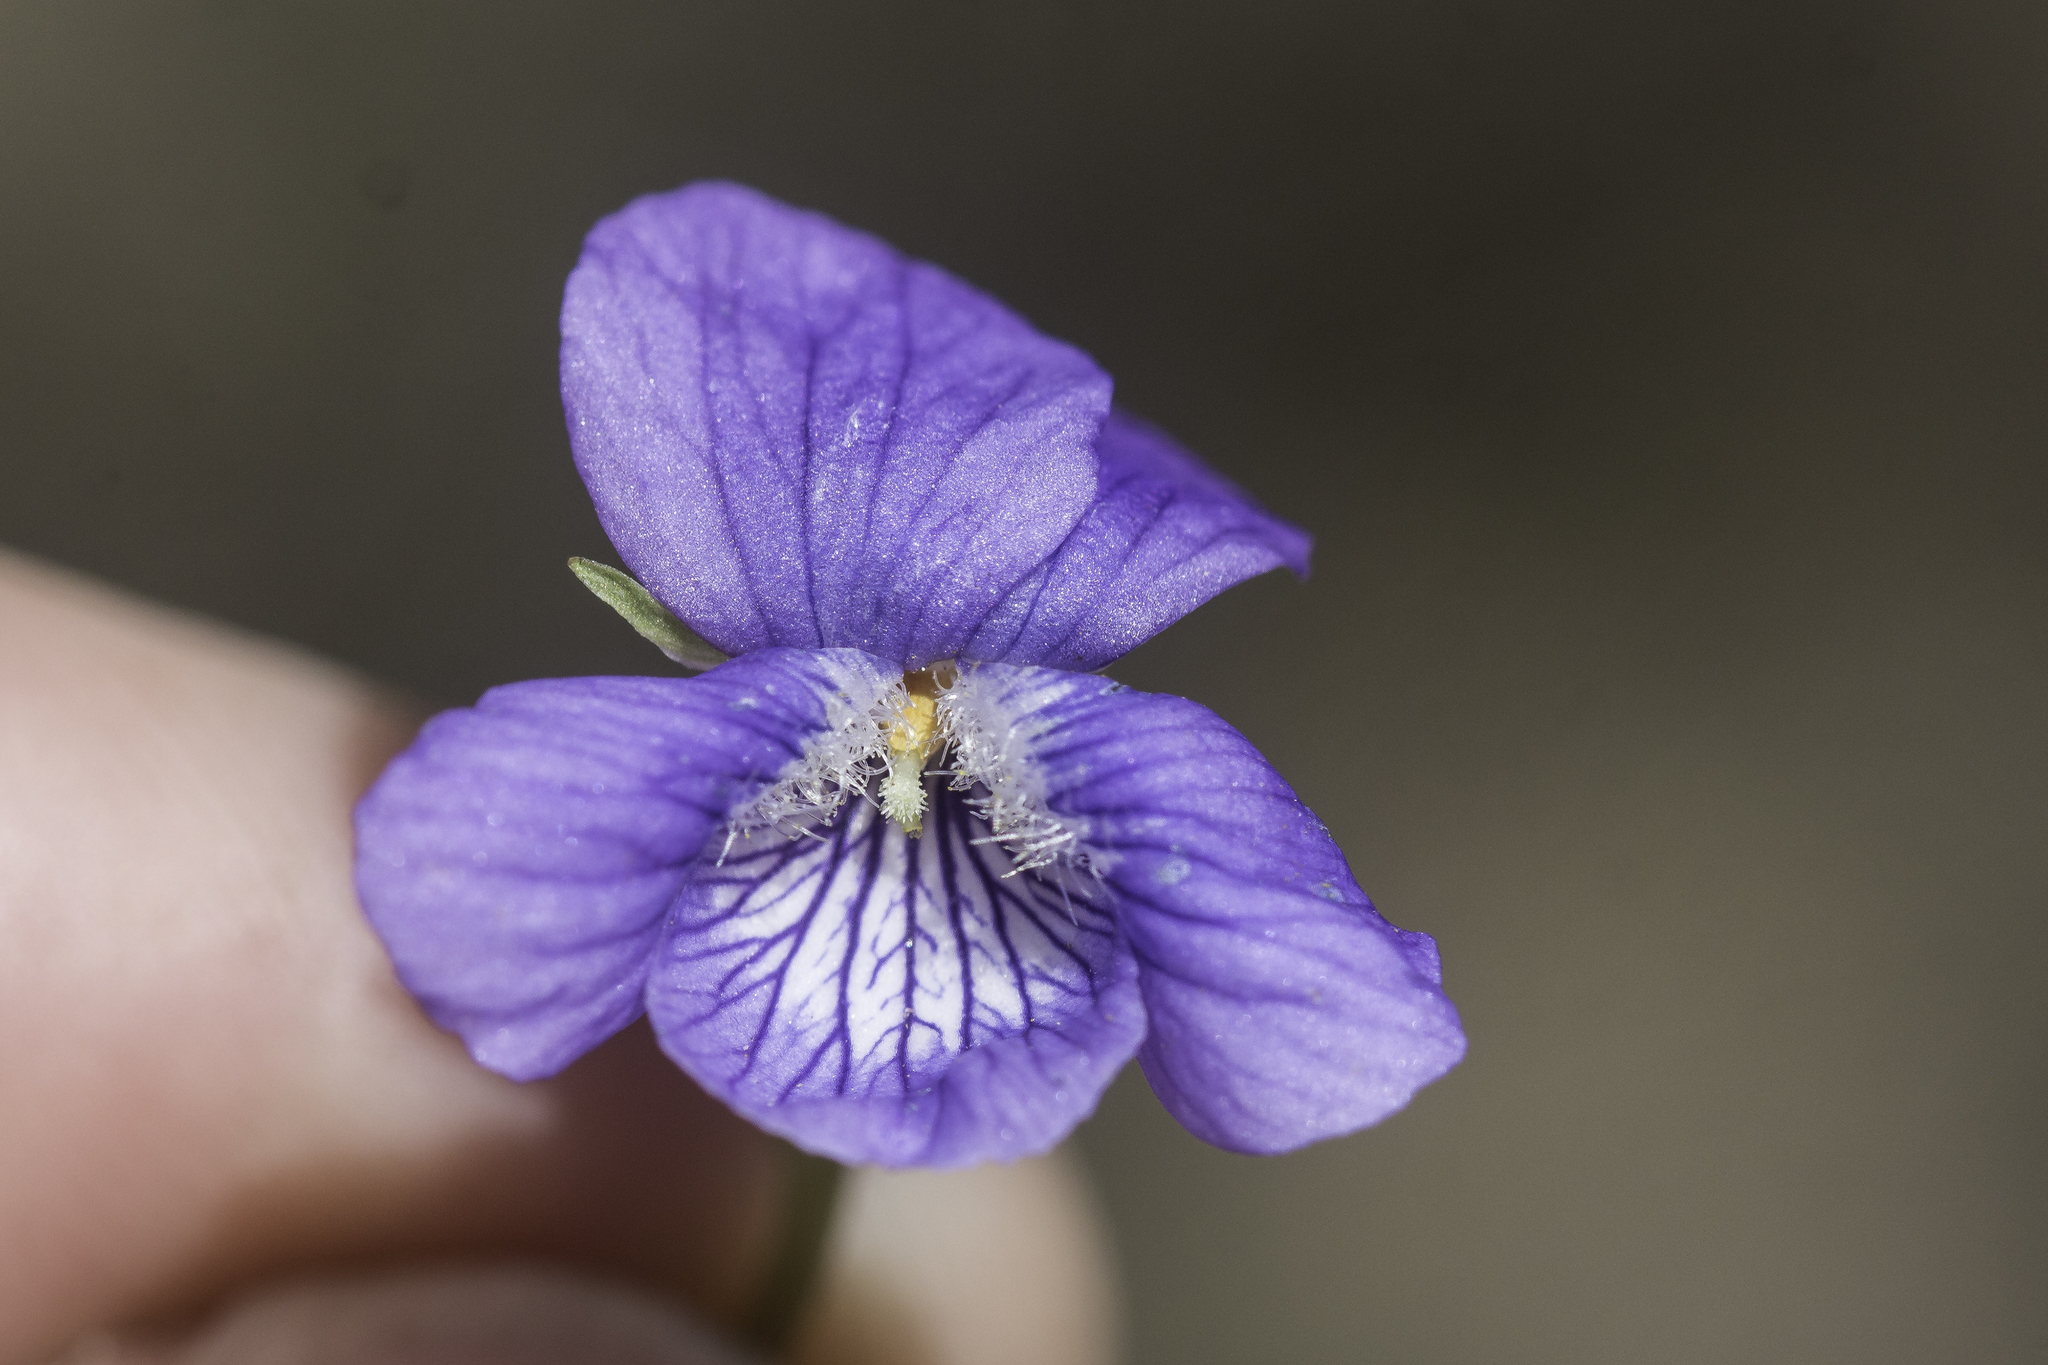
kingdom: Plantae
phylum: Tracheophyta
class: Magnoliopsida
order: Malpighiales
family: Violaceae
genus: Viola
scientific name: Viola adunca
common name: Sand violet
